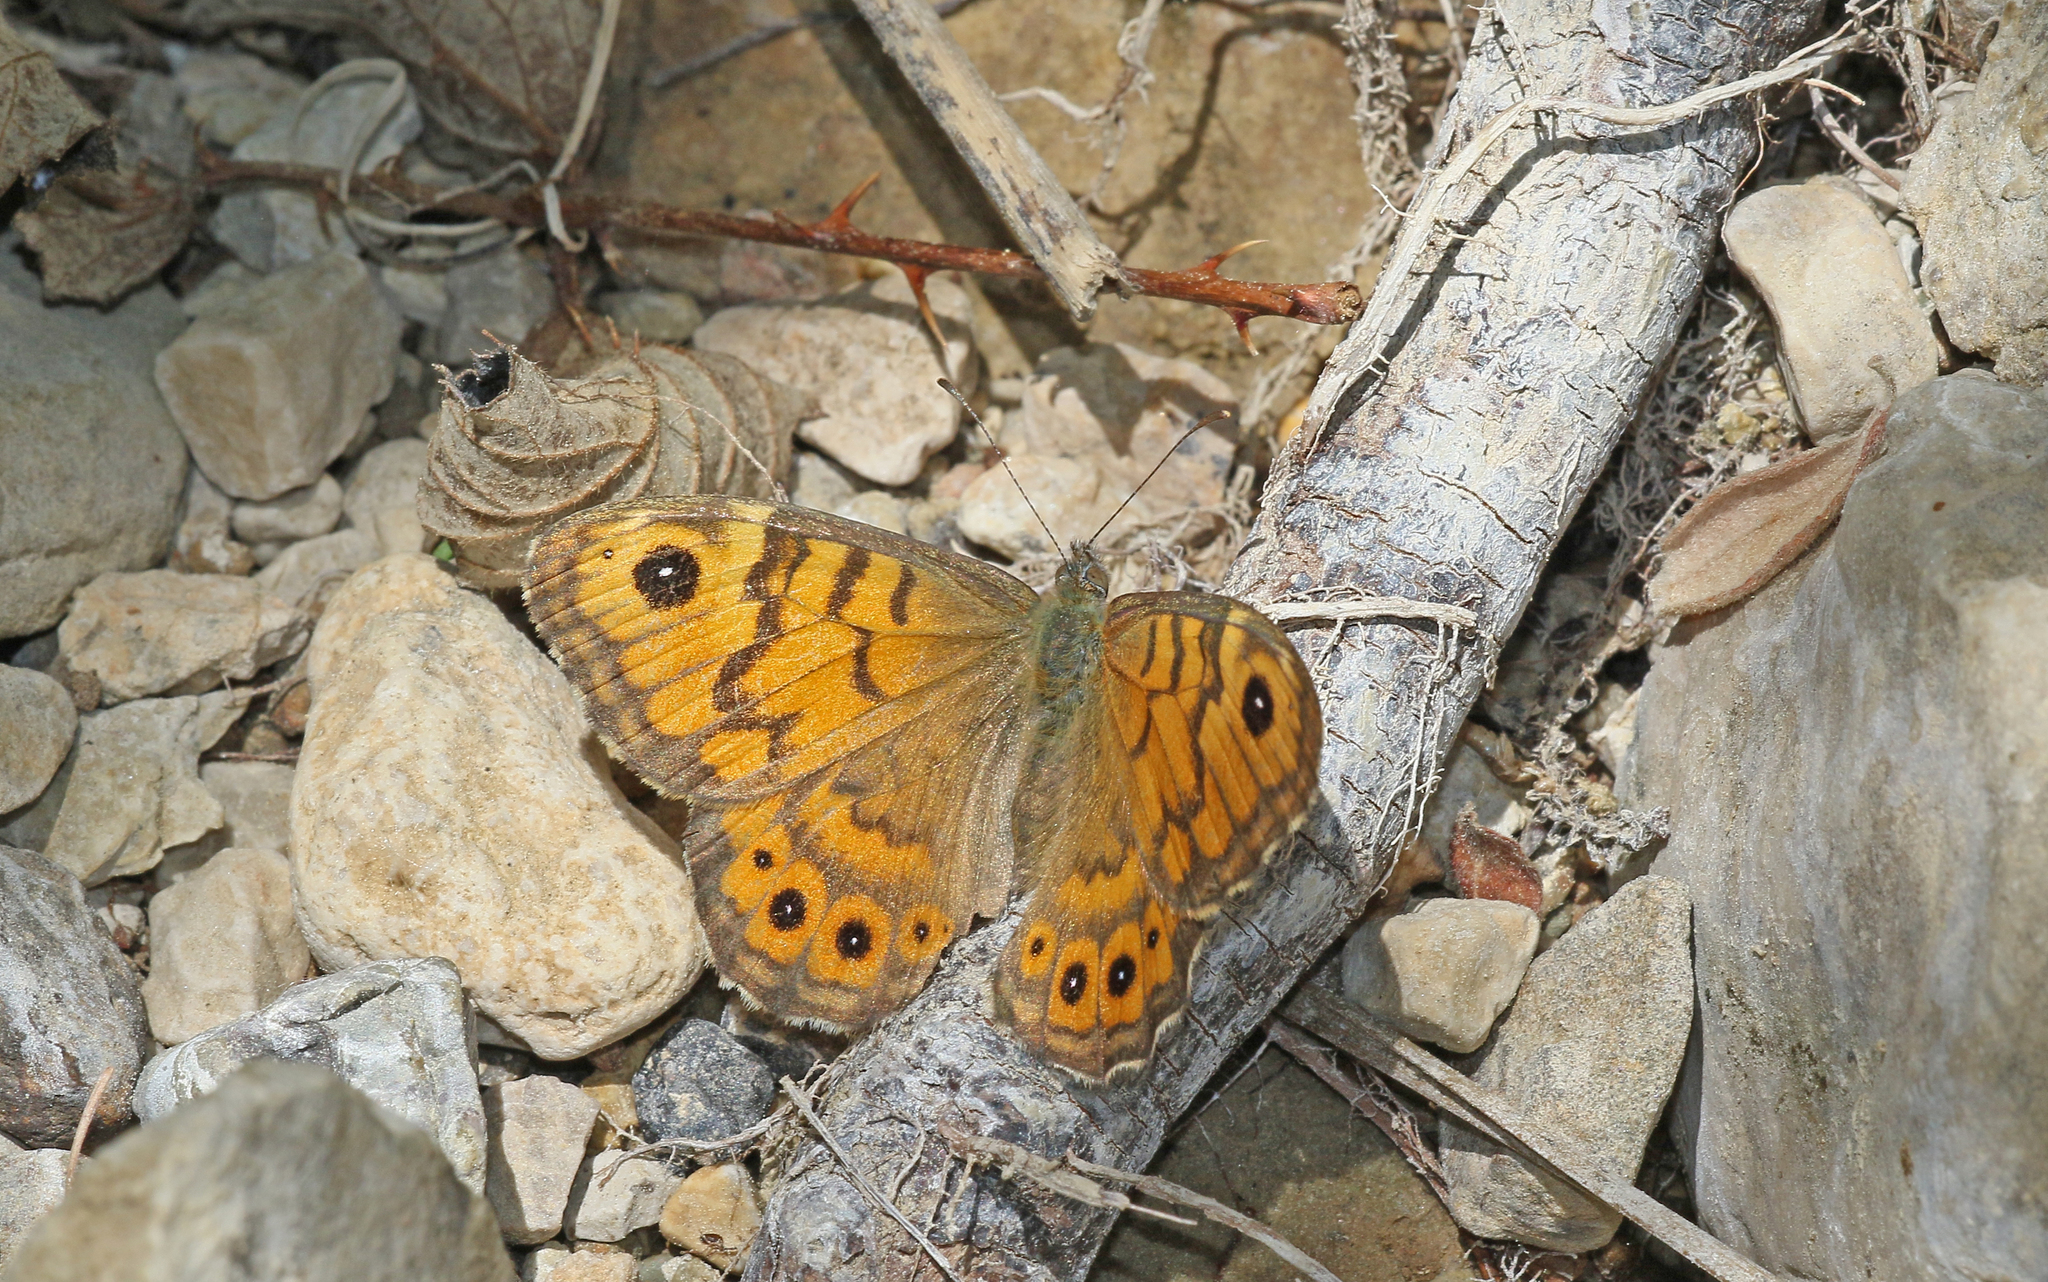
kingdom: Animalia
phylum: Arthropoda
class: Insecta
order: Lepidoptera
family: Nymphalidae
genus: Pararge
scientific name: Pararge Lasiommata megera
